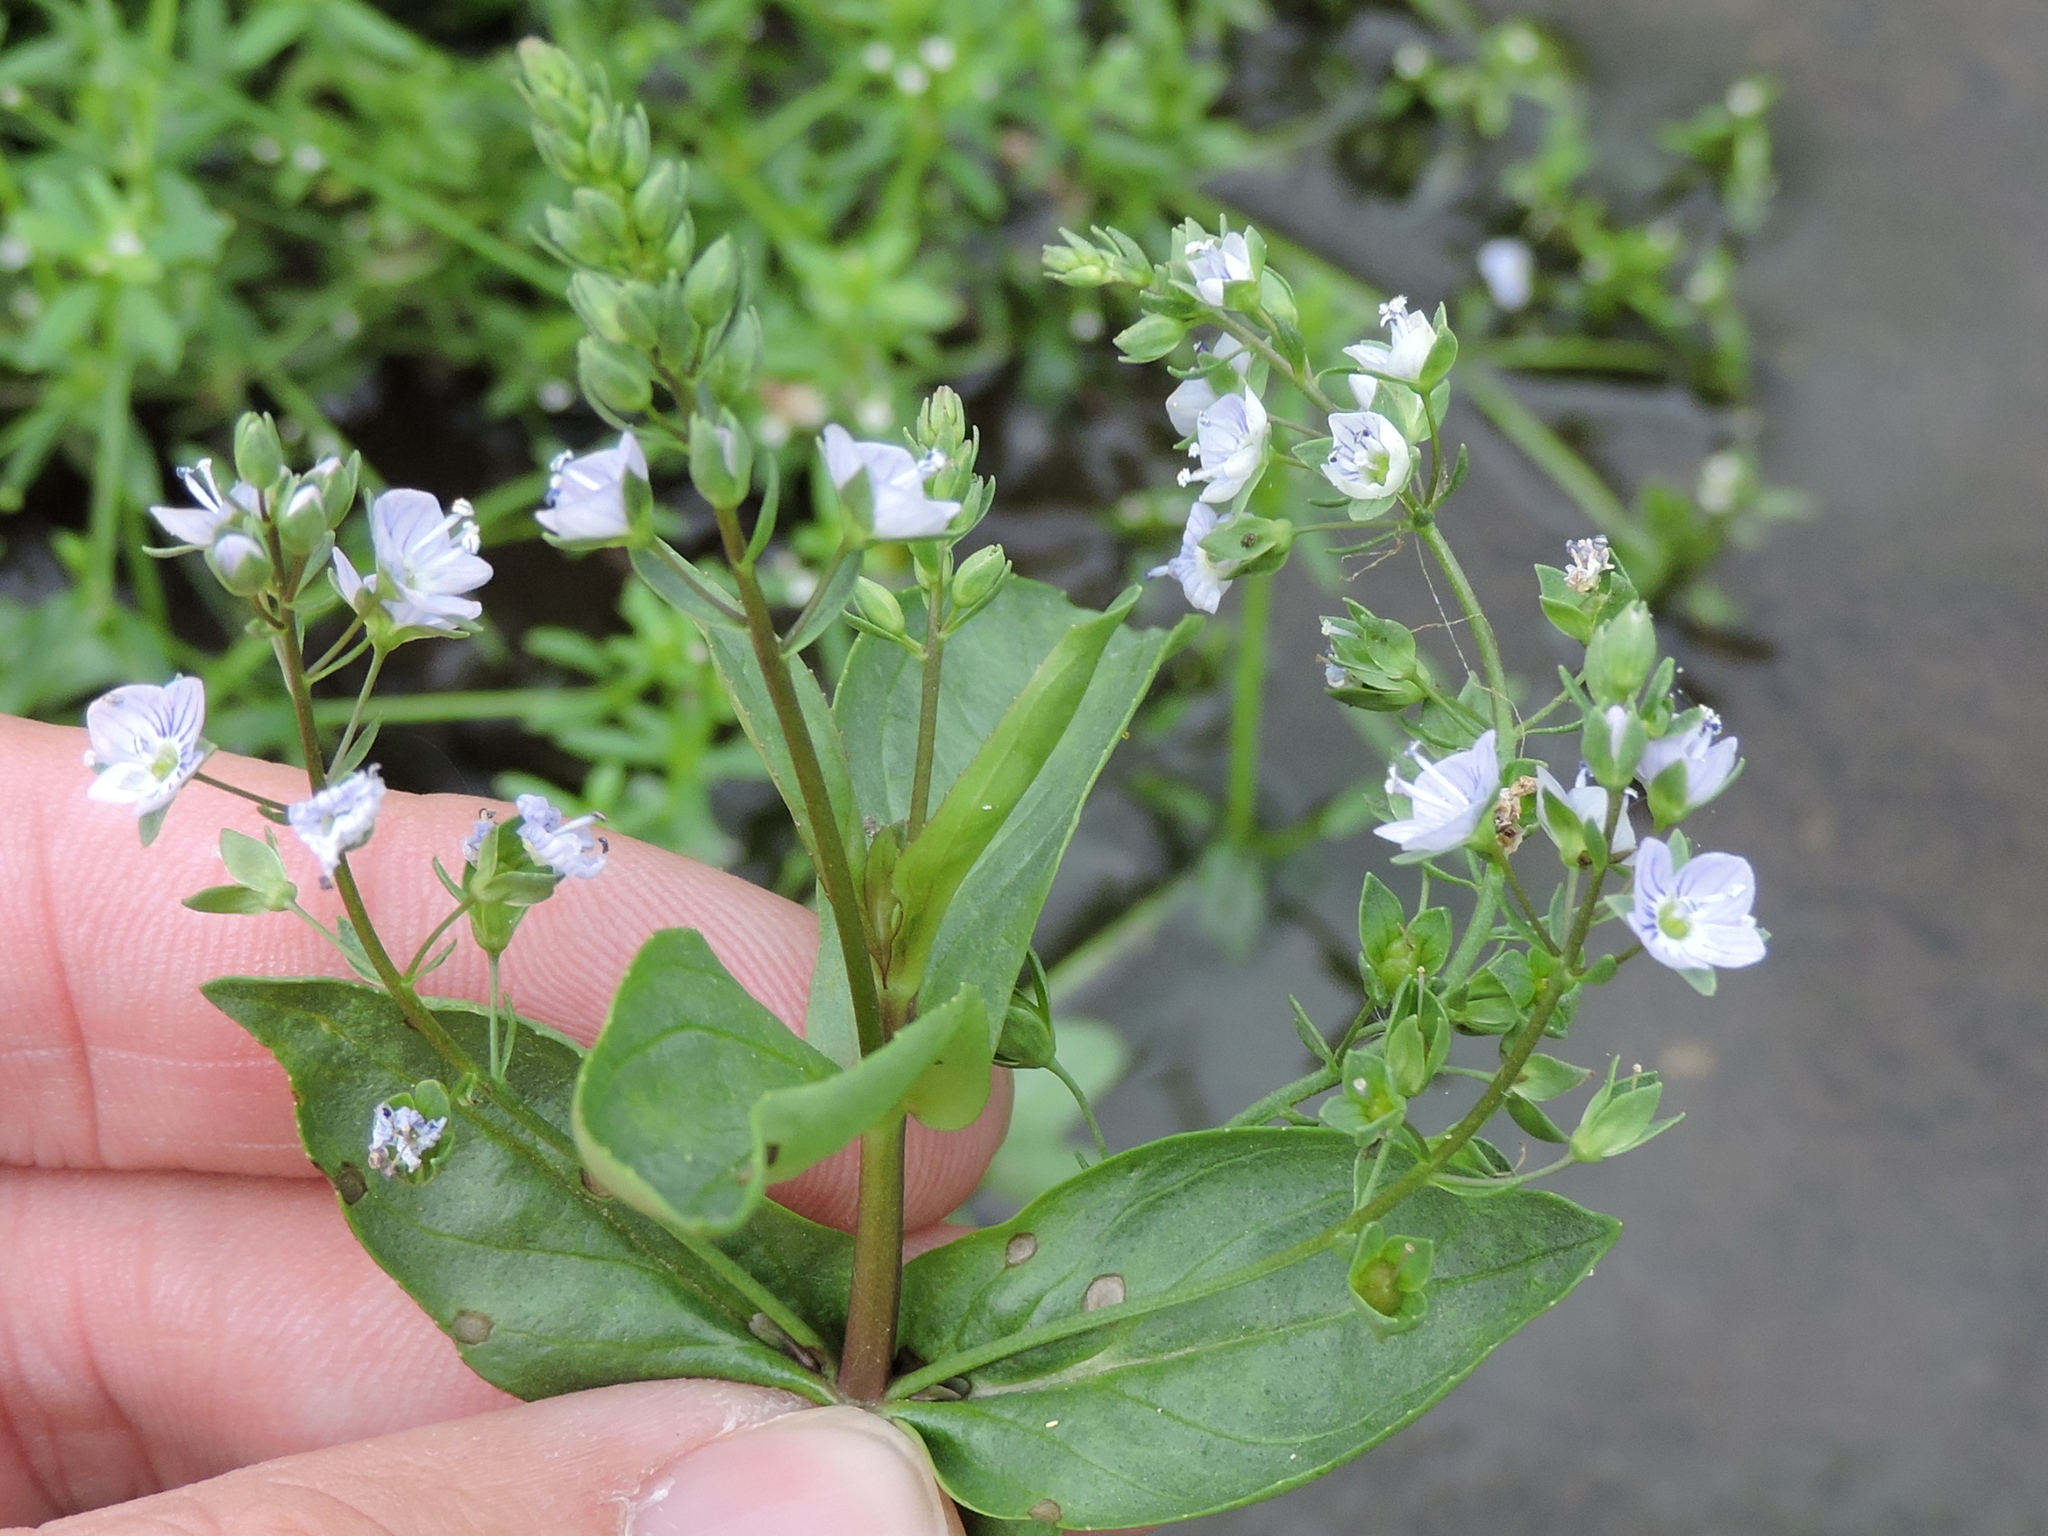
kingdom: Plantae
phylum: Tracheophyta
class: Magnoliopsida
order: Lamiales
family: Plantaginaceae
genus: Veronica
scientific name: Veronica anagallis-aquatica
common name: Water speedwell
